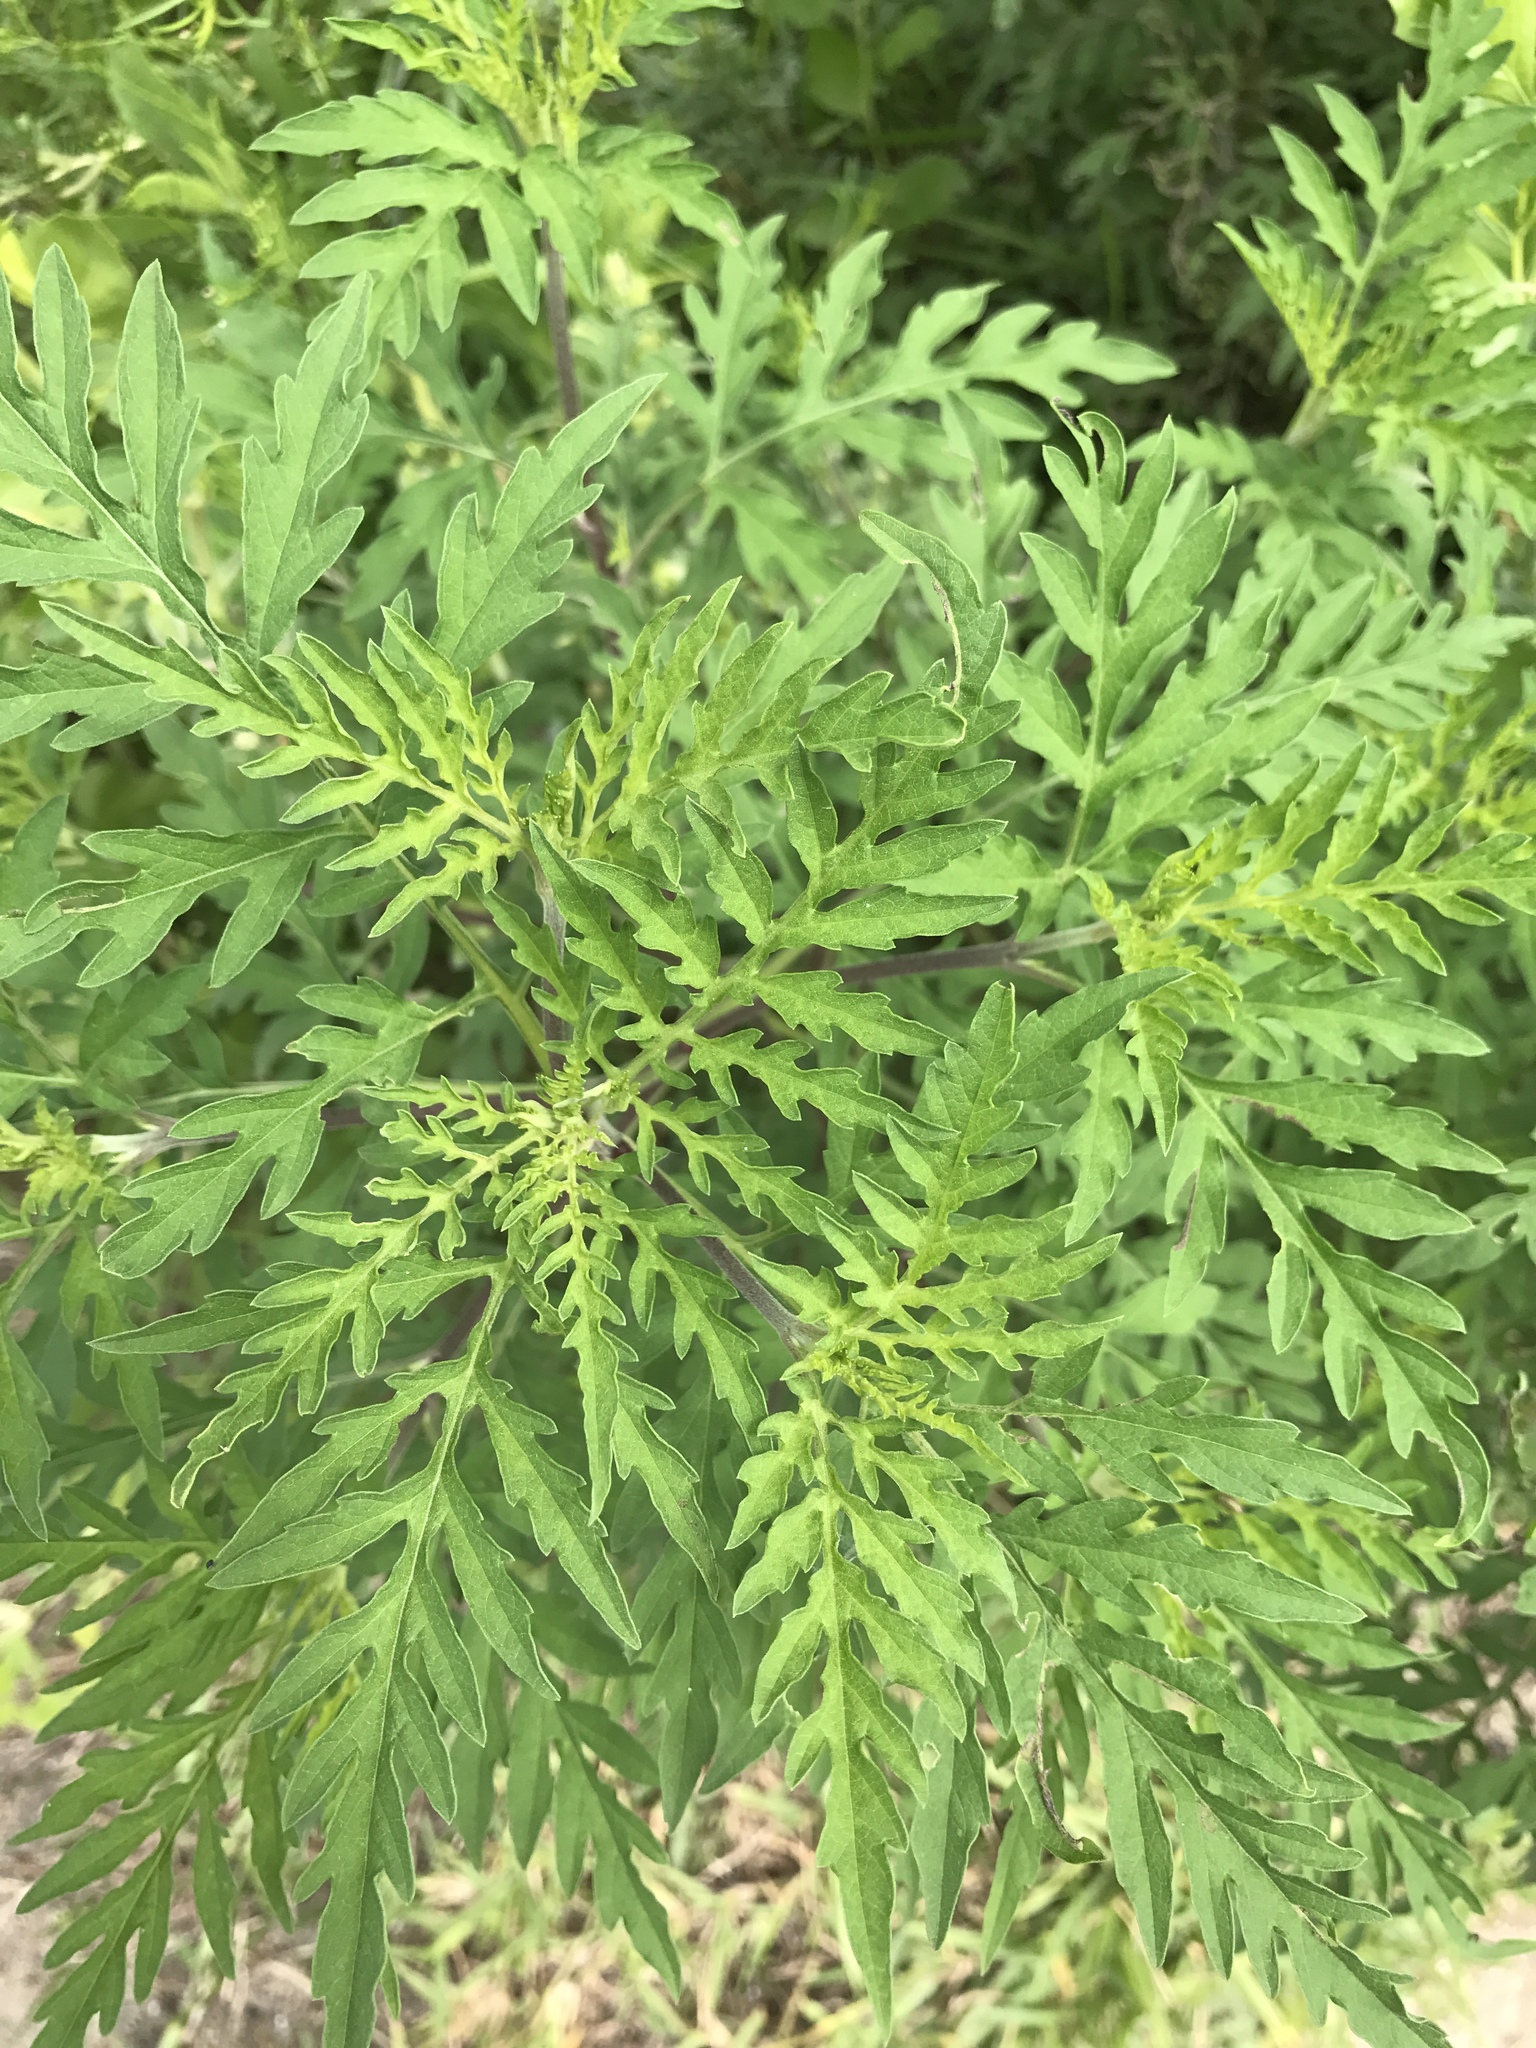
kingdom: Plantae
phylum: Tracheophyta
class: Magnoliopsida
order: Asterales
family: Asteraceae
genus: Ambrosia
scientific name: Ambrosia artemisiifolia
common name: Annual ragweed
